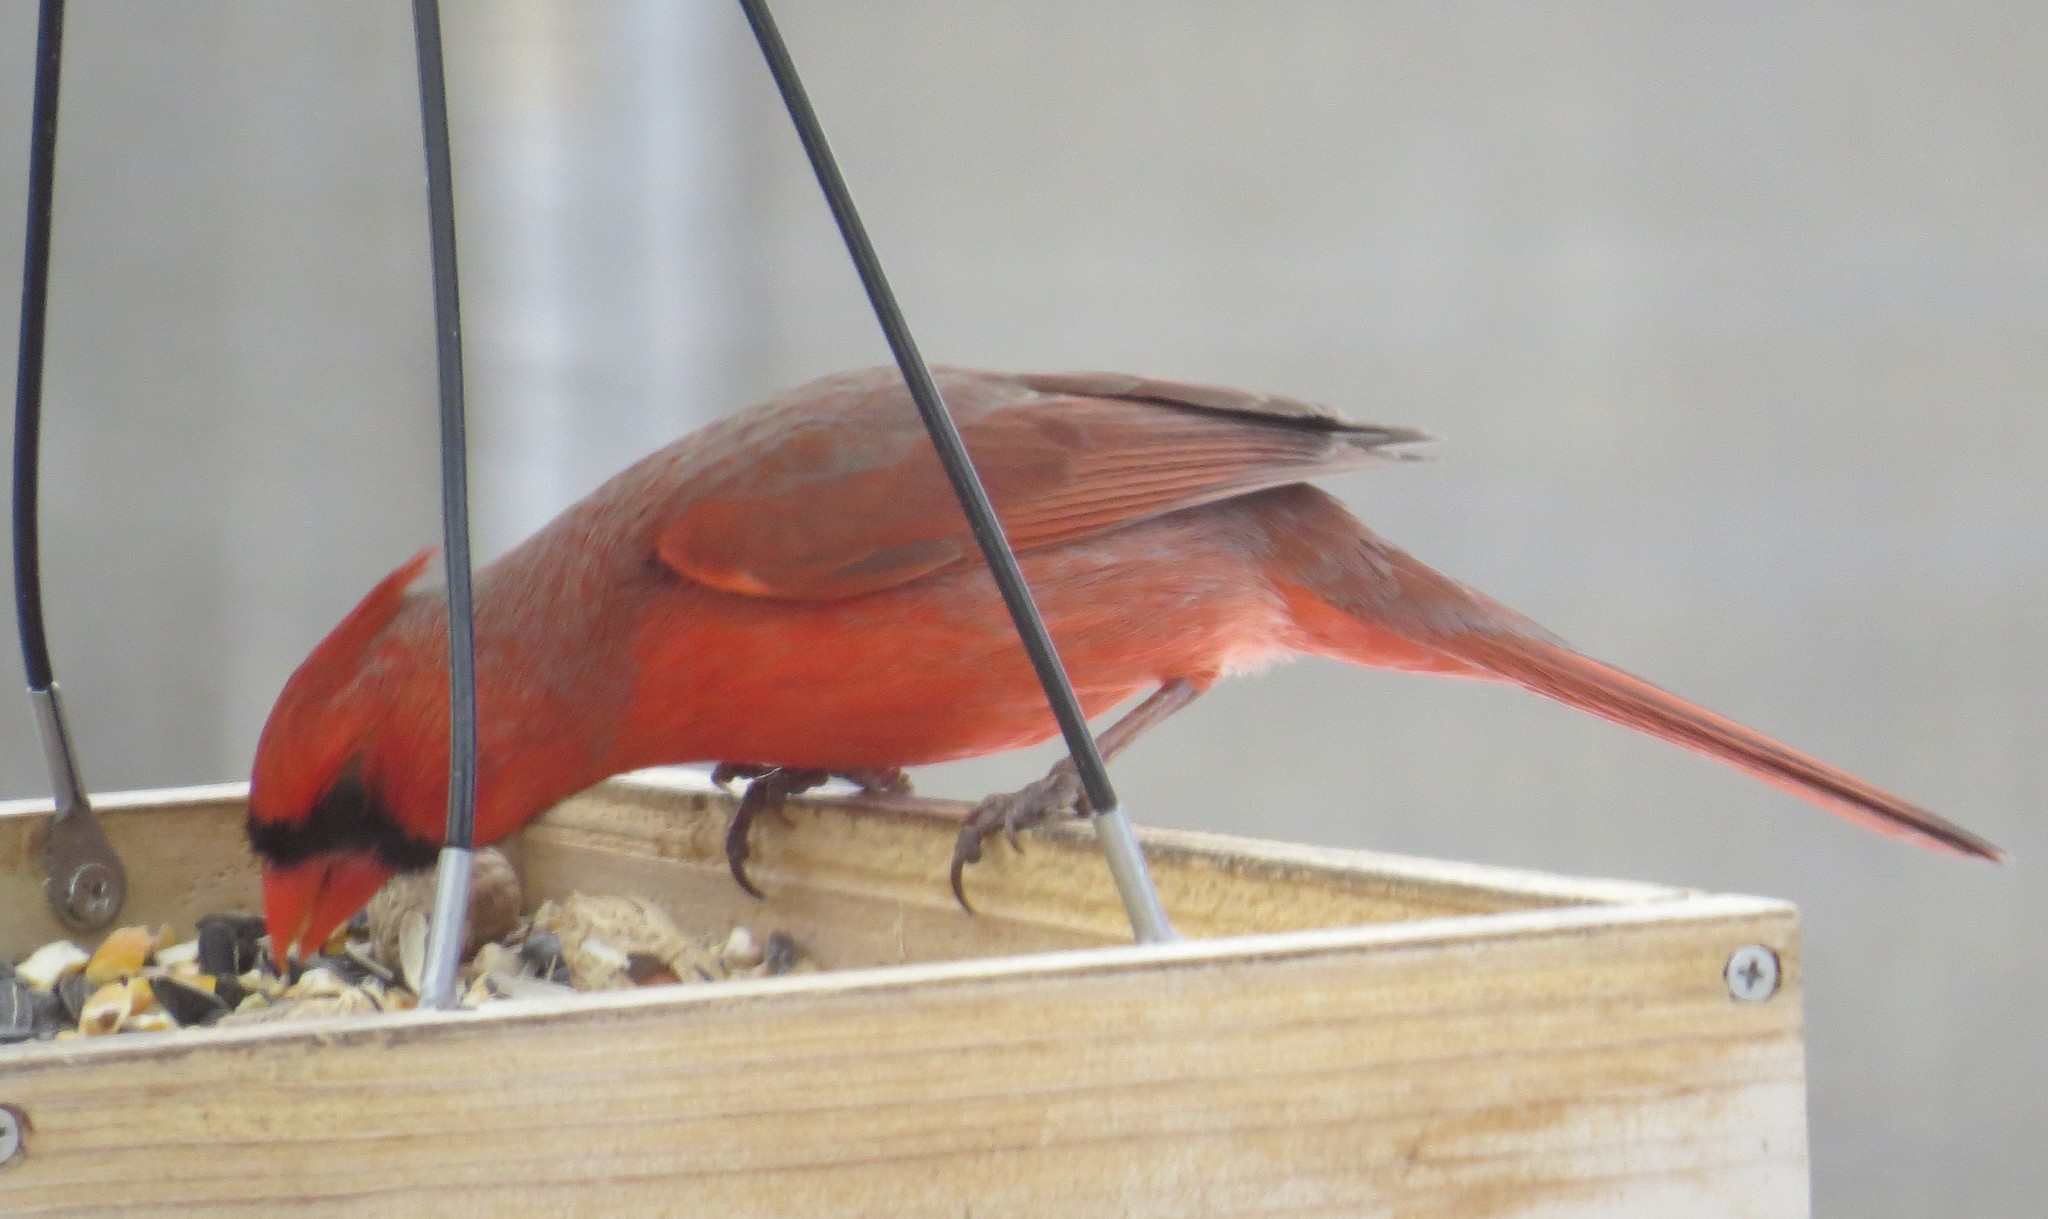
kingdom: Animalia
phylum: Chordata
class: Aves
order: Passeriformes
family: Cardinalidae
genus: Cardinalis
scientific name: Cardinalis cardinalis
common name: Northern cardinal
